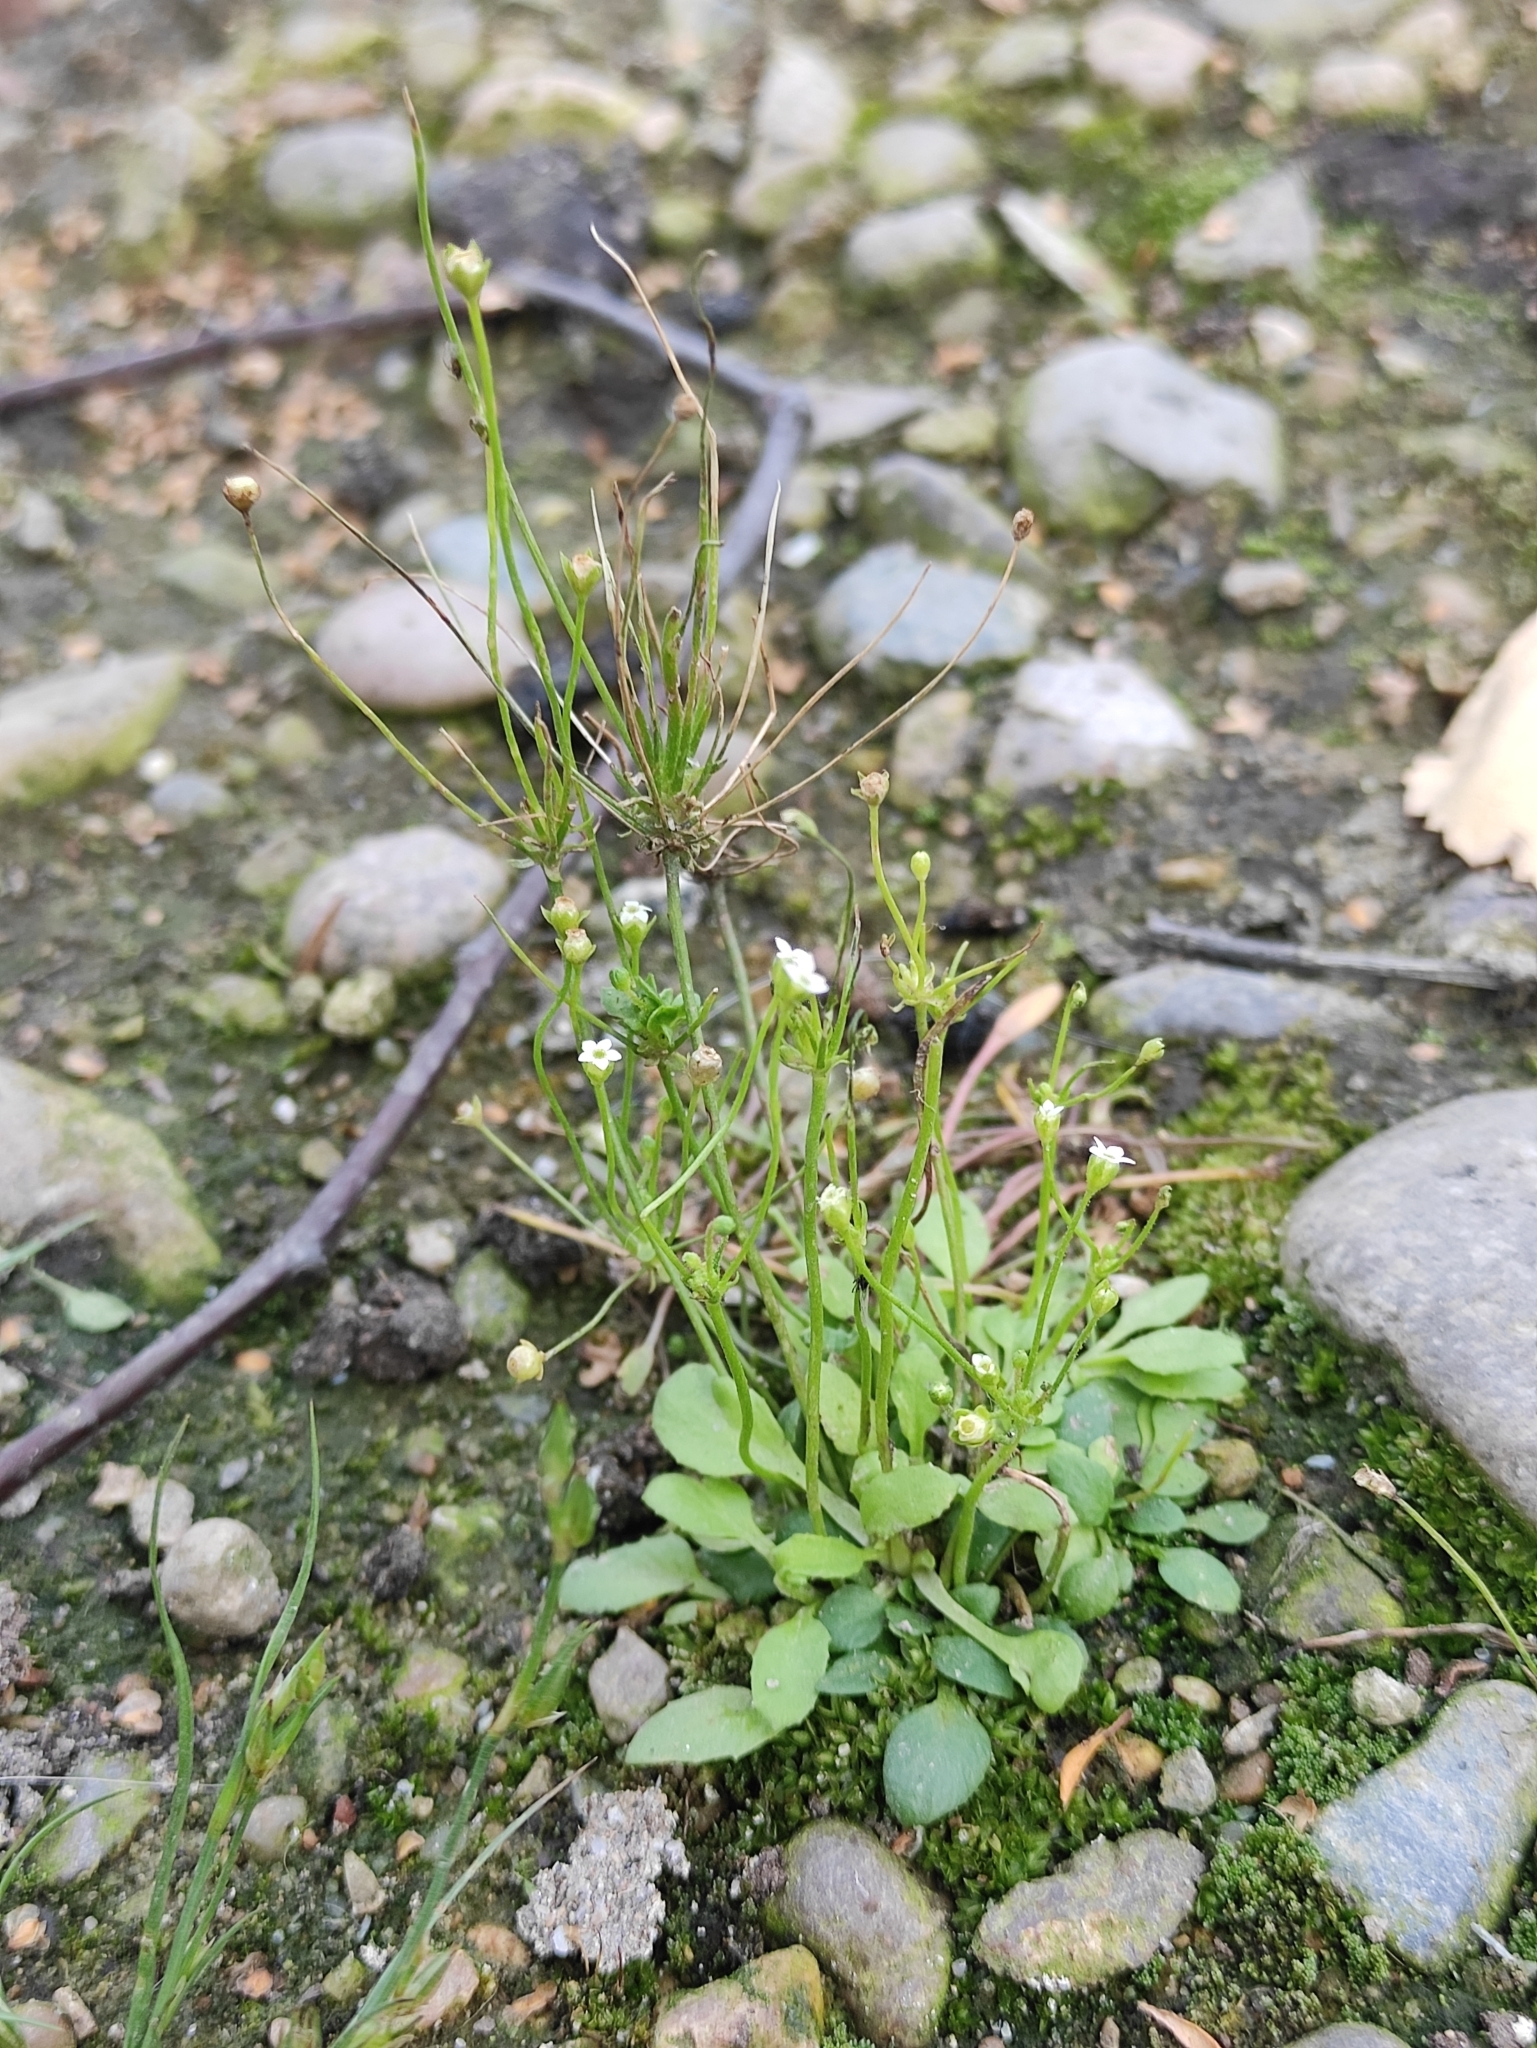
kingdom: Plantae
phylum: Tracheophyta
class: Magnoliopsida
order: Ericales
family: Primulaceae
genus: Androsace
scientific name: Androsace filiformis
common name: Filiform rock jasmine
